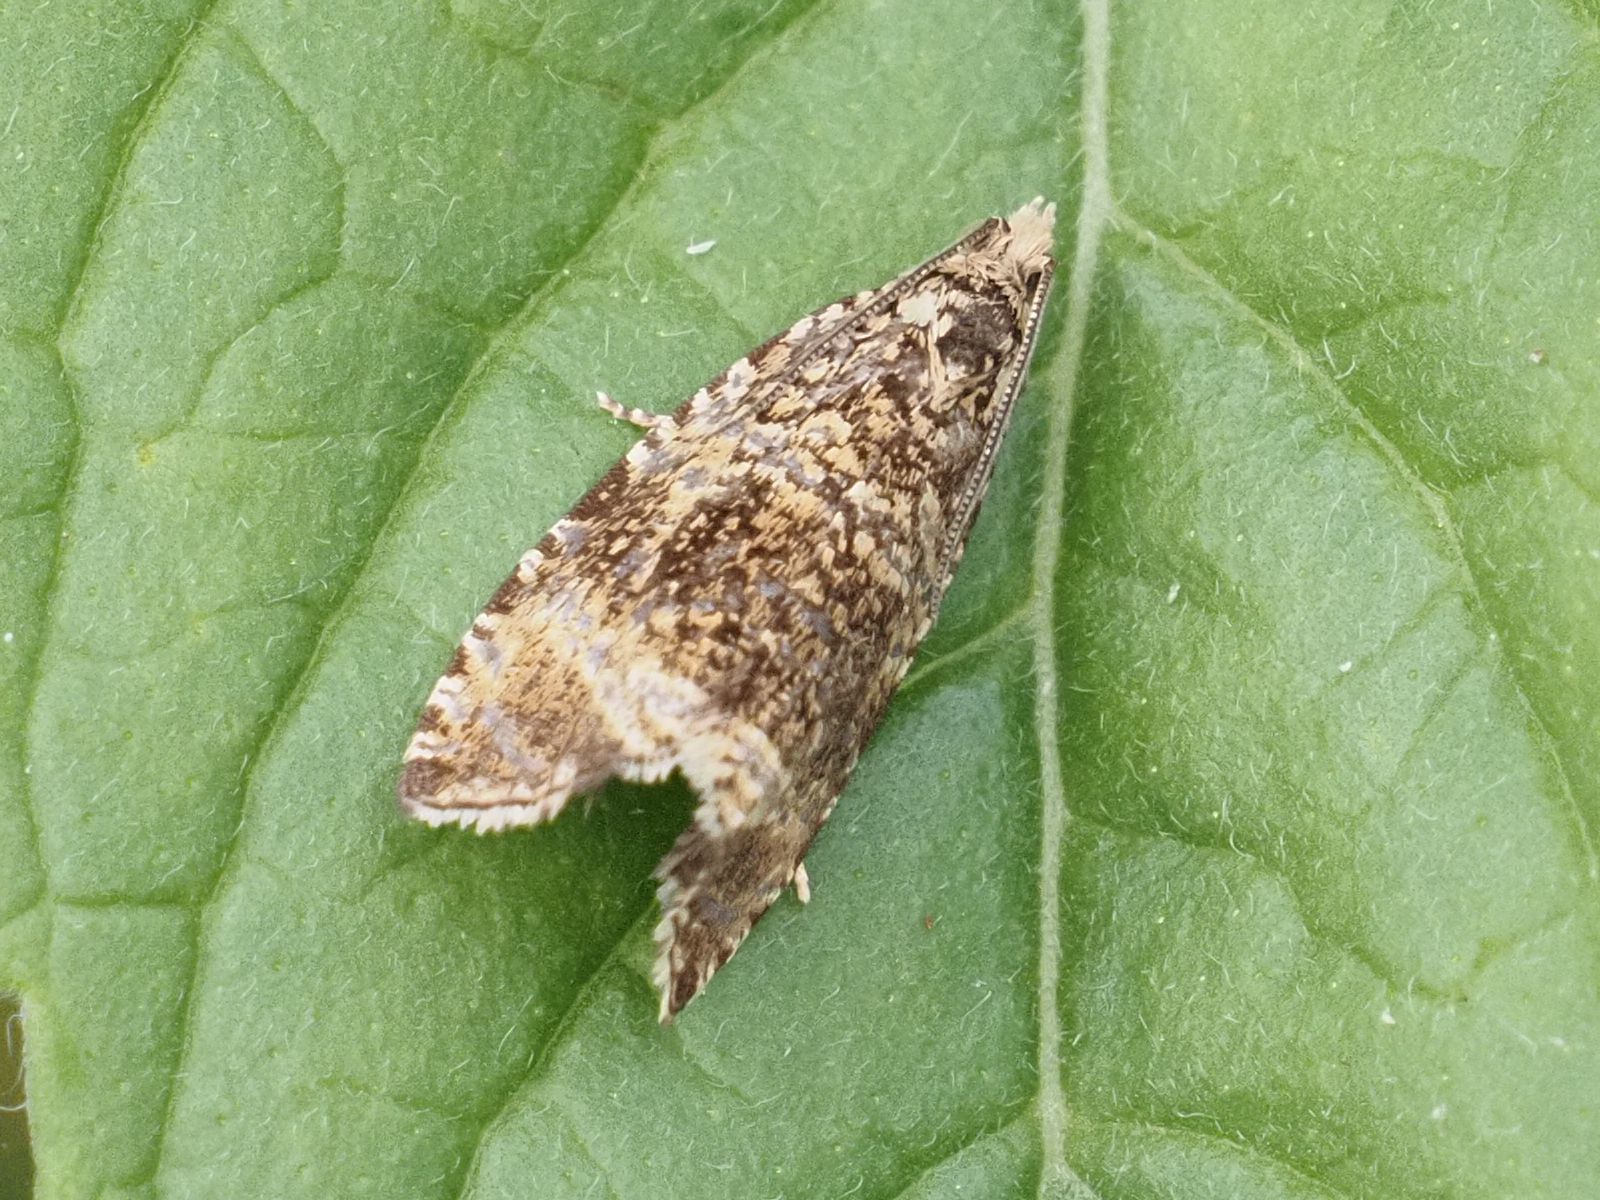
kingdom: Animalia
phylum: Arthropoda
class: Insecta
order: Lepidoptera
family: Tortricidae
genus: Syricoris
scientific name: Syricoris lacunana
